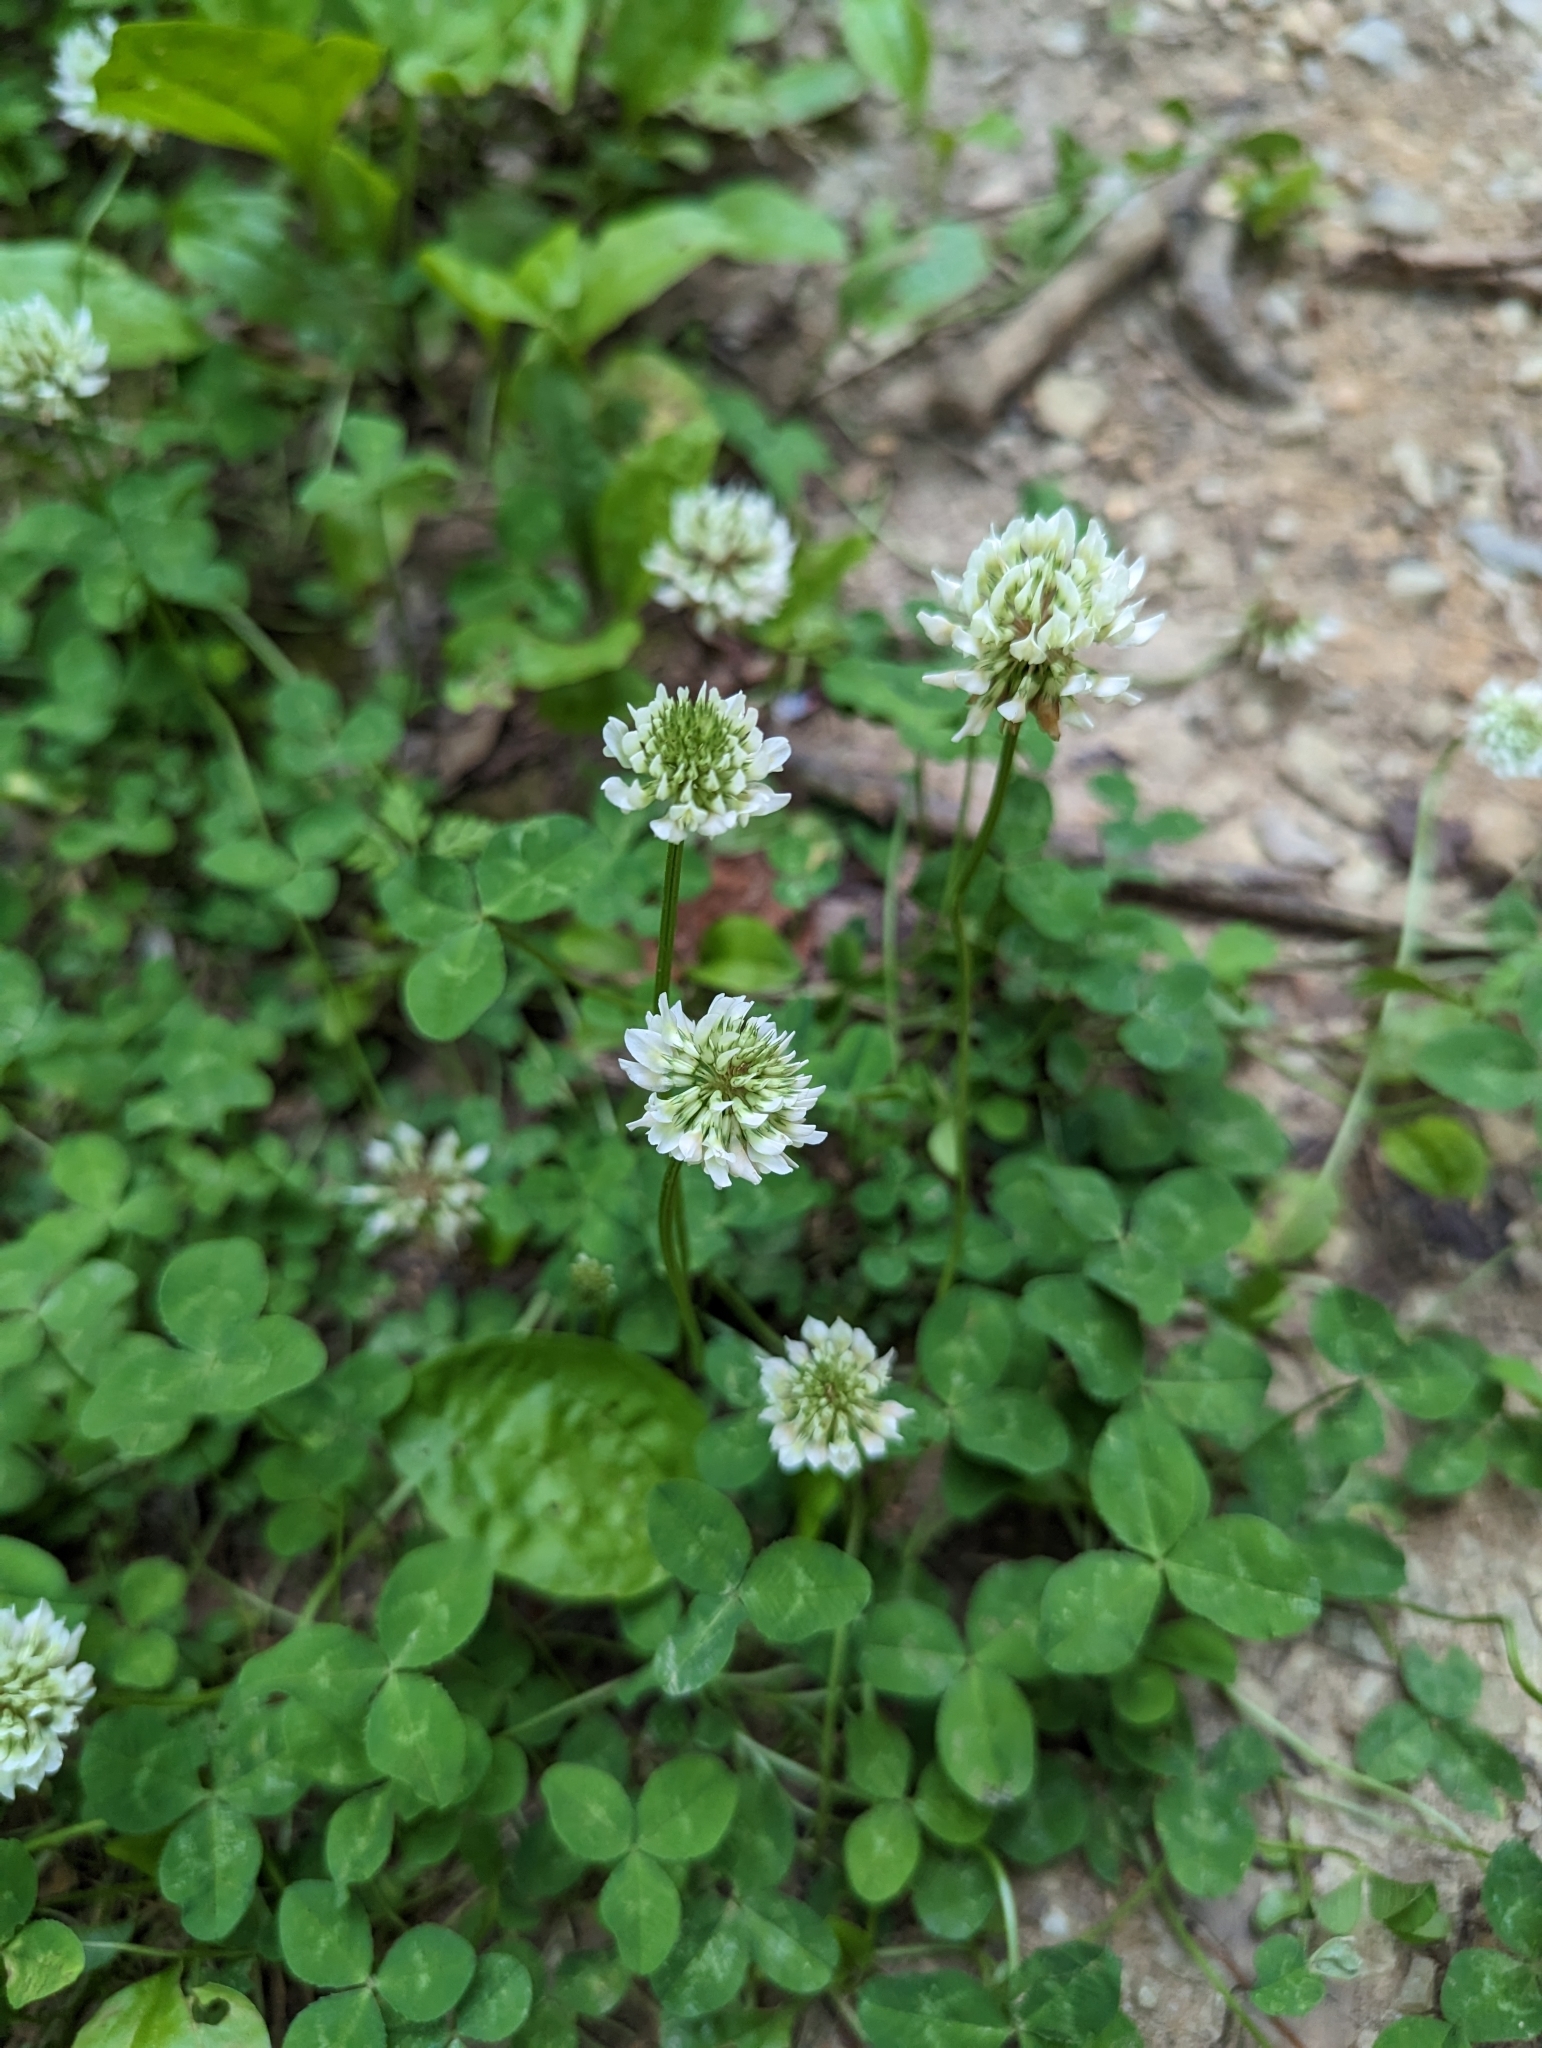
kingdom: Plantae
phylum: Tracheophyta
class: Magnoliopsida
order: Fabales
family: Fabaceae
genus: Trifolium
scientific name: Trifolium repens
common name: White clover
